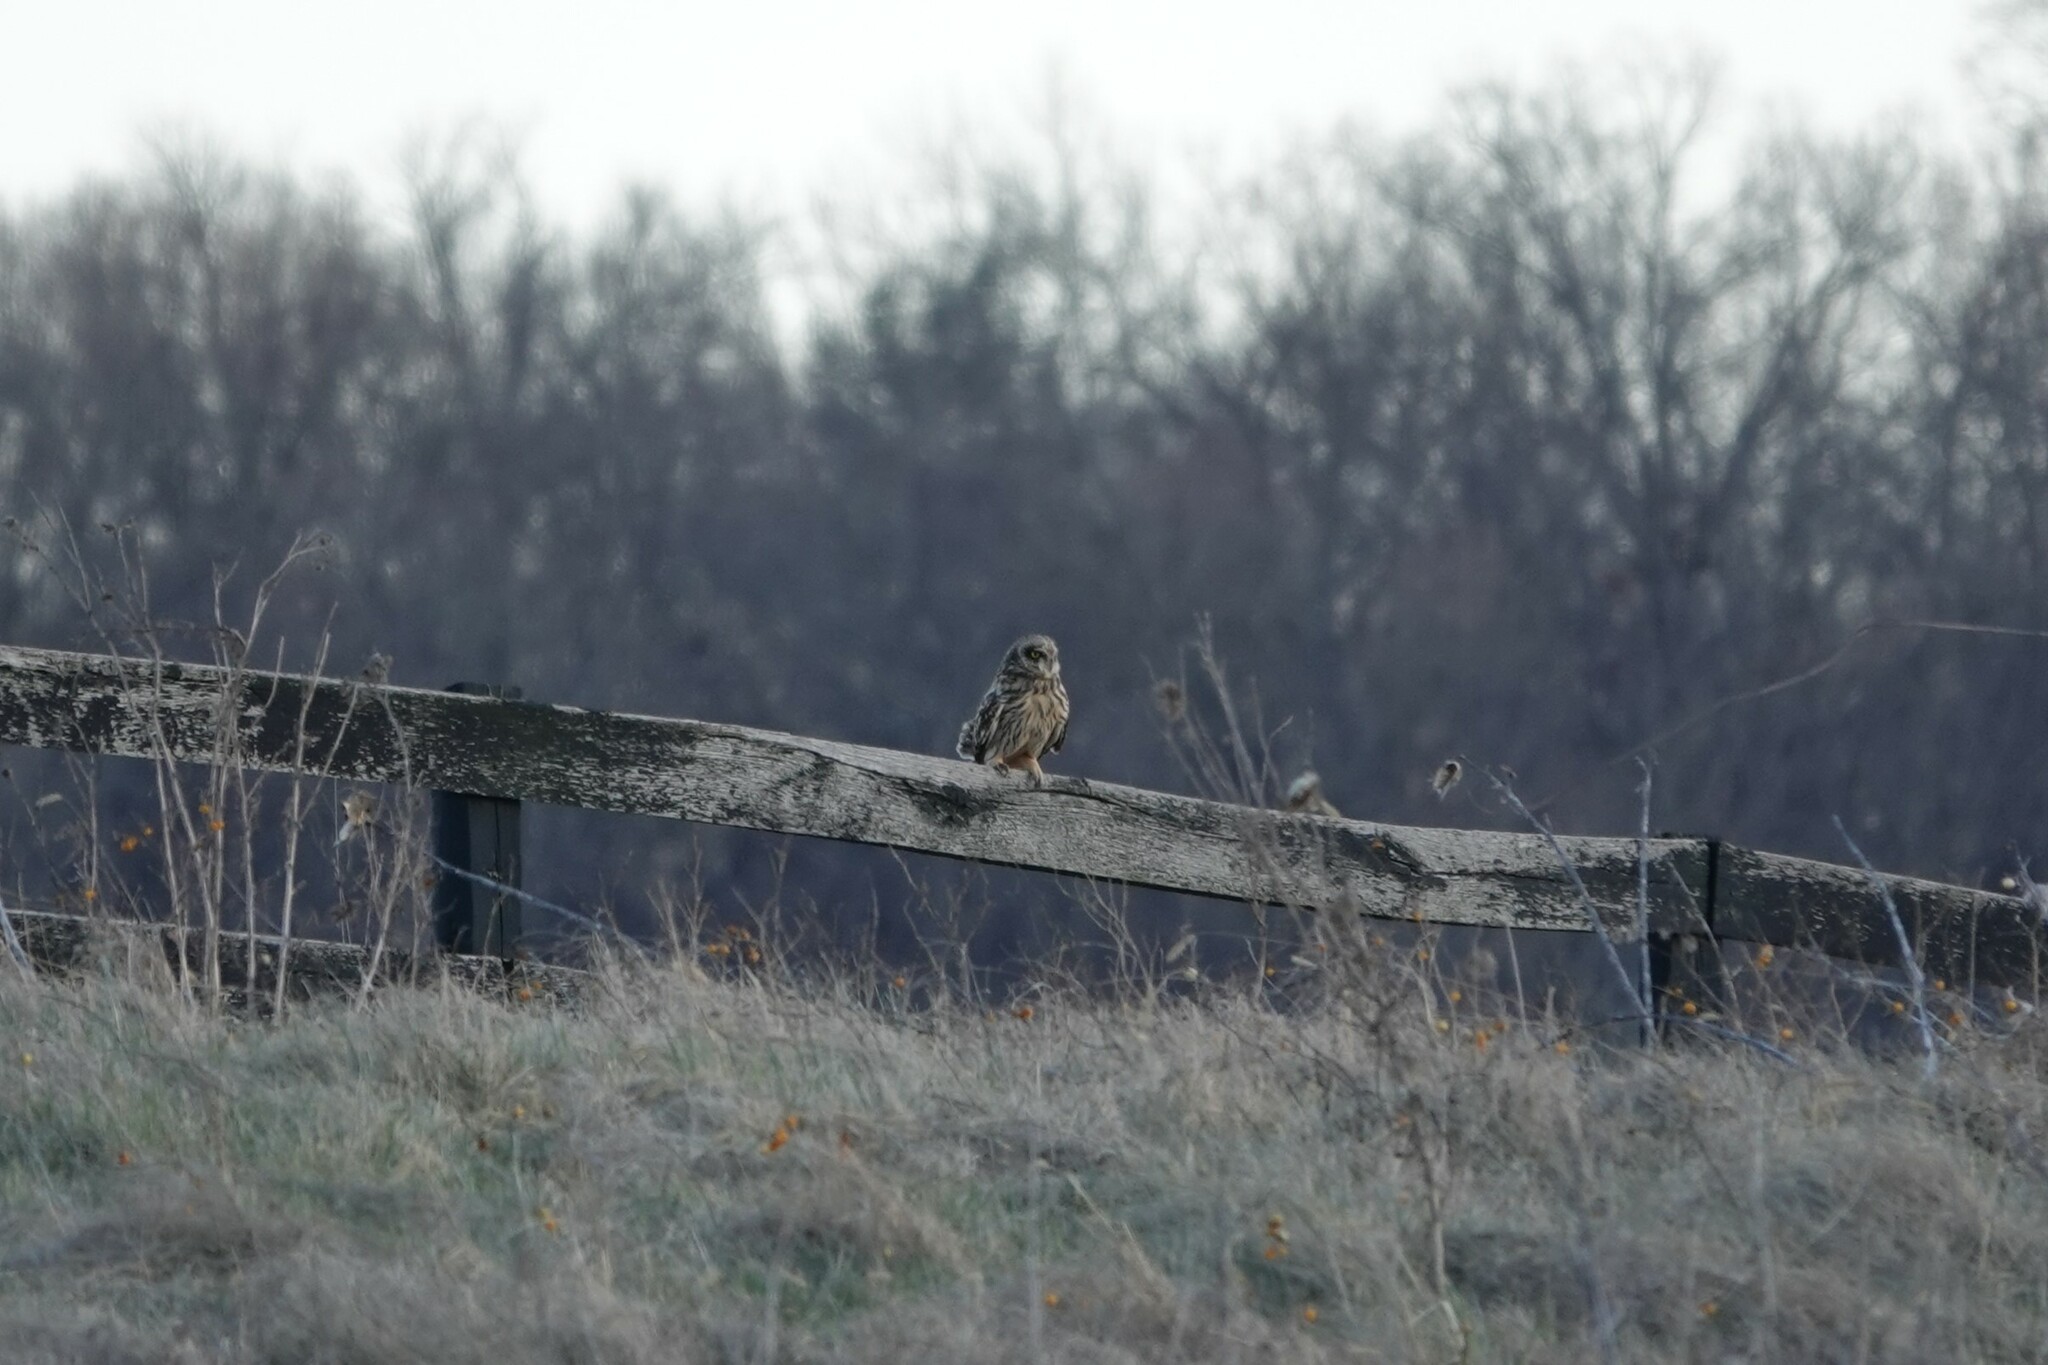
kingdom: Animalia
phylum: Chordata
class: Aves
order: Strigiformes
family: Strigidae
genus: Asio
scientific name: Asio flammeus
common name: Short-eared owl
